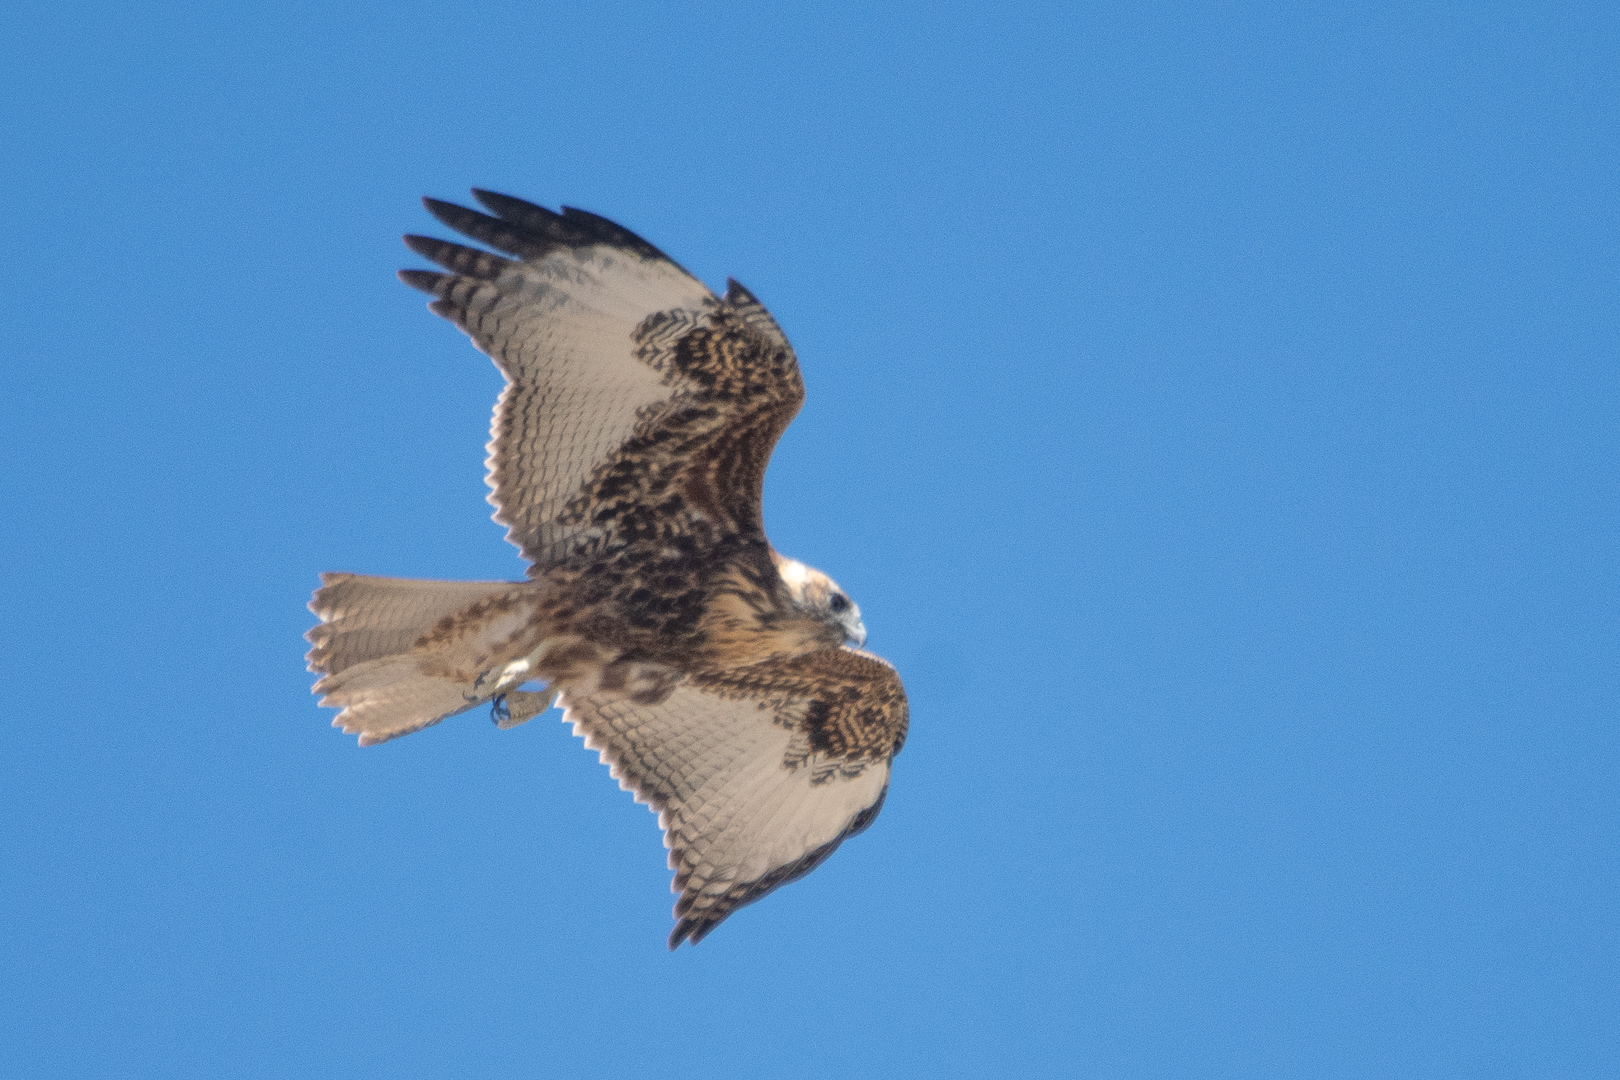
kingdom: Animalia
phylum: Chordata
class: Aves
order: Accipitriformes
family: Accipitridae
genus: Buteo
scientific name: Buteo polyosoma
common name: Variable hawk
